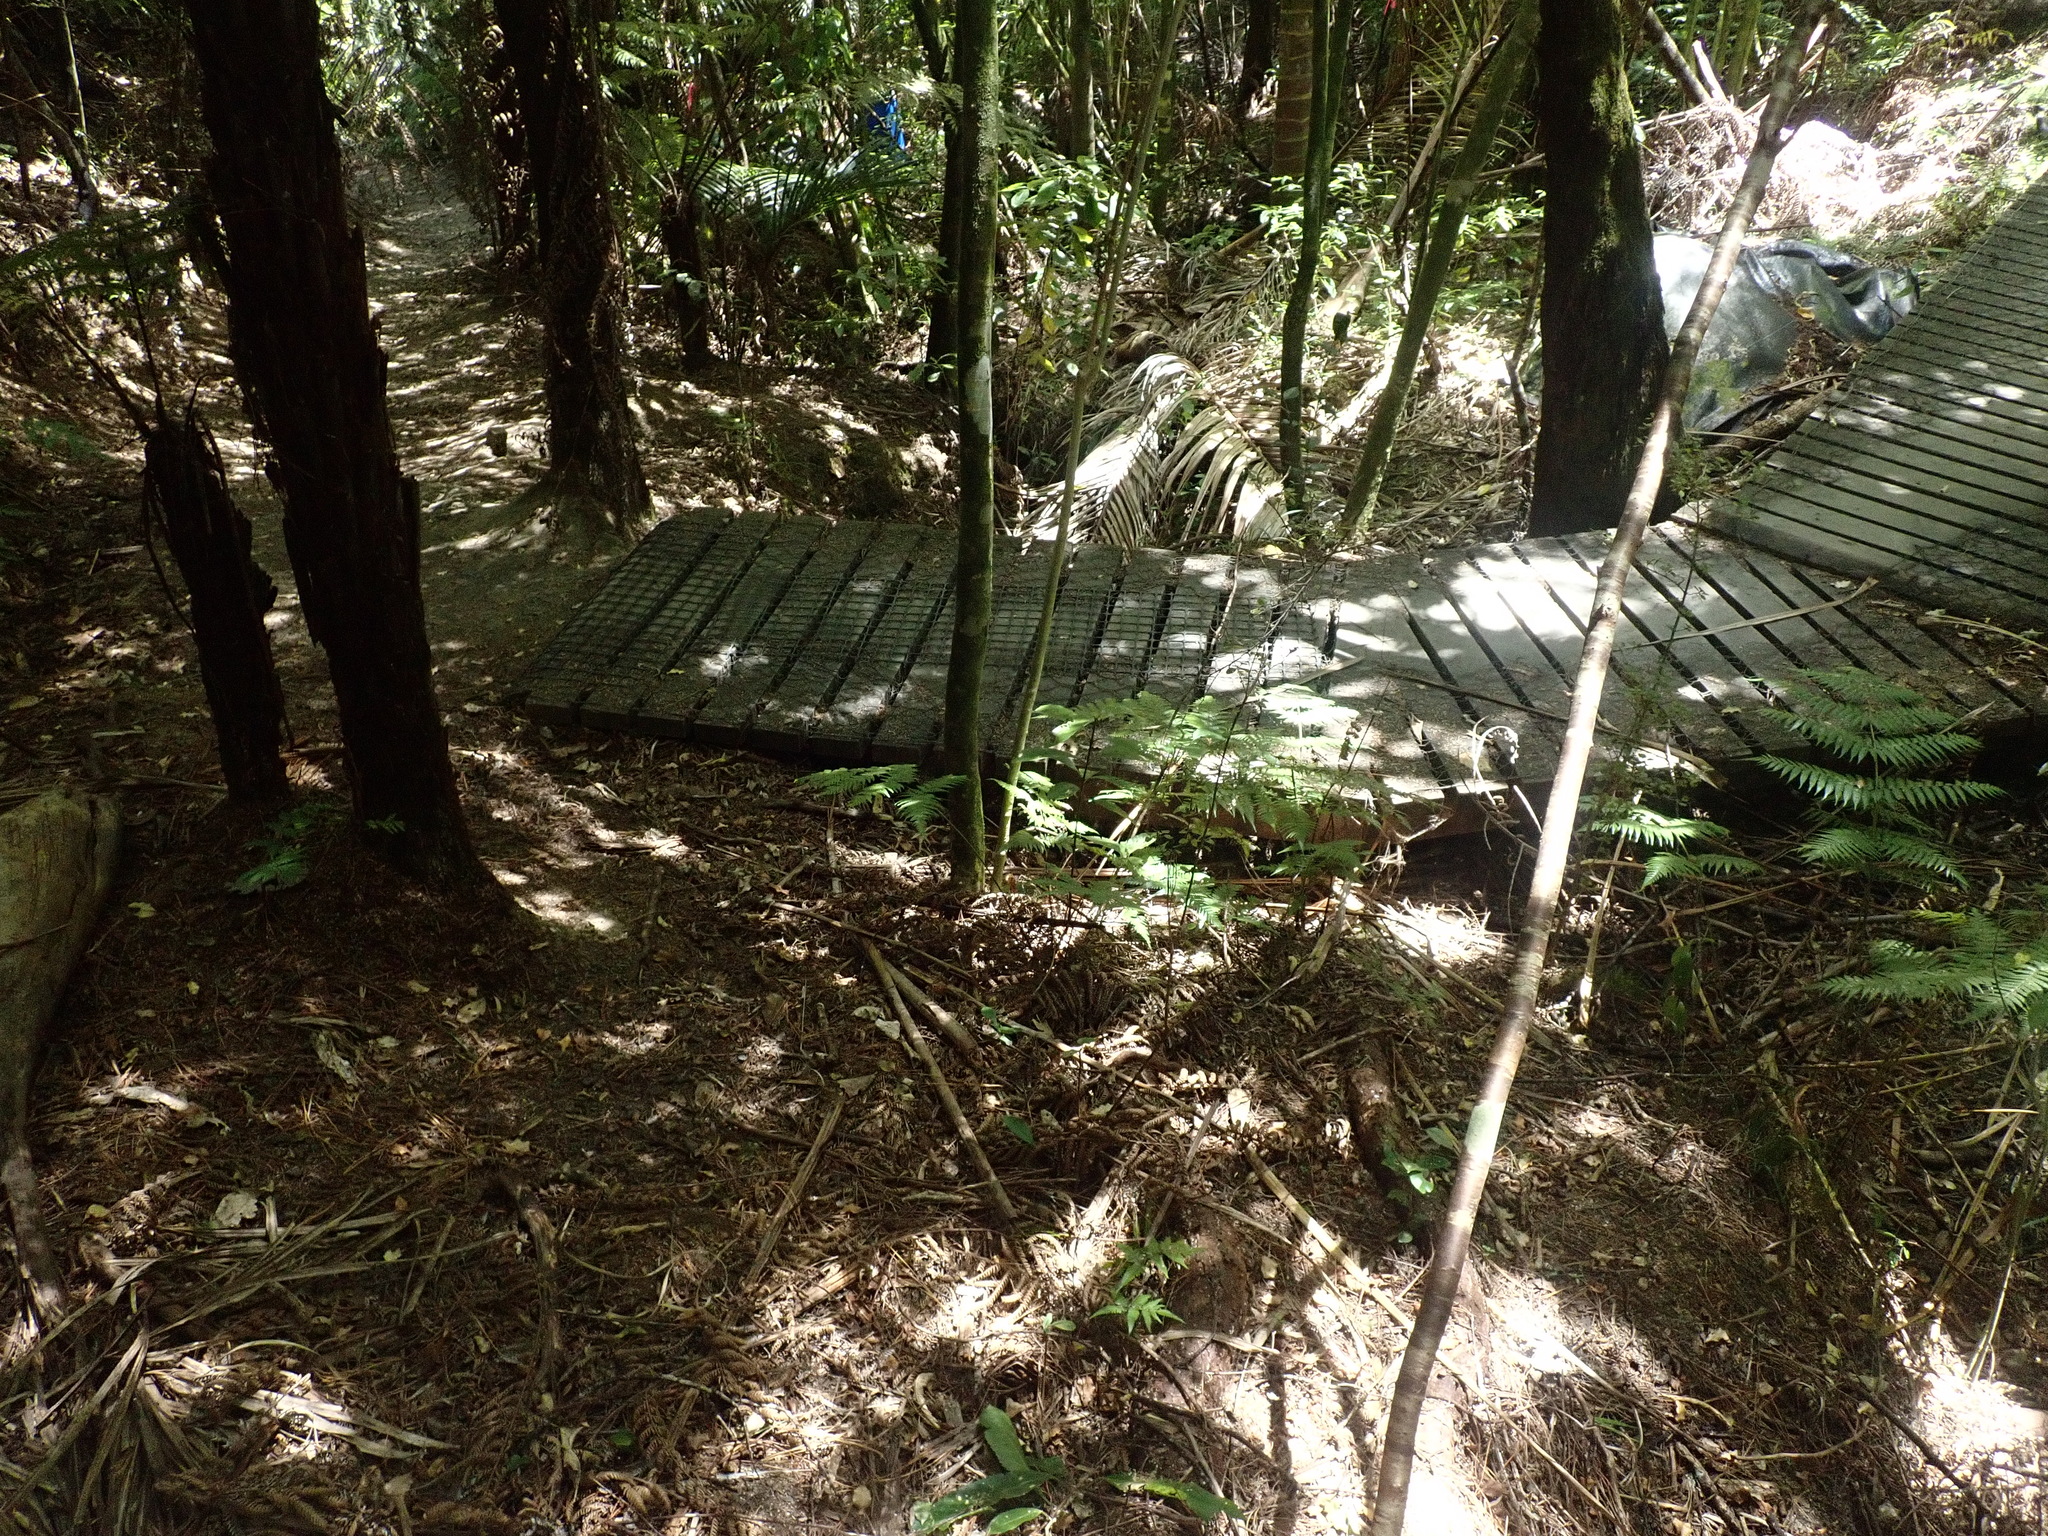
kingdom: Plantae
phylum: Tracheophyta
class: Polypodiopsida
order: Cyatheales
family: Cyatheaceae
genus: Alsophila
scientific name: Alsophila dealbata
